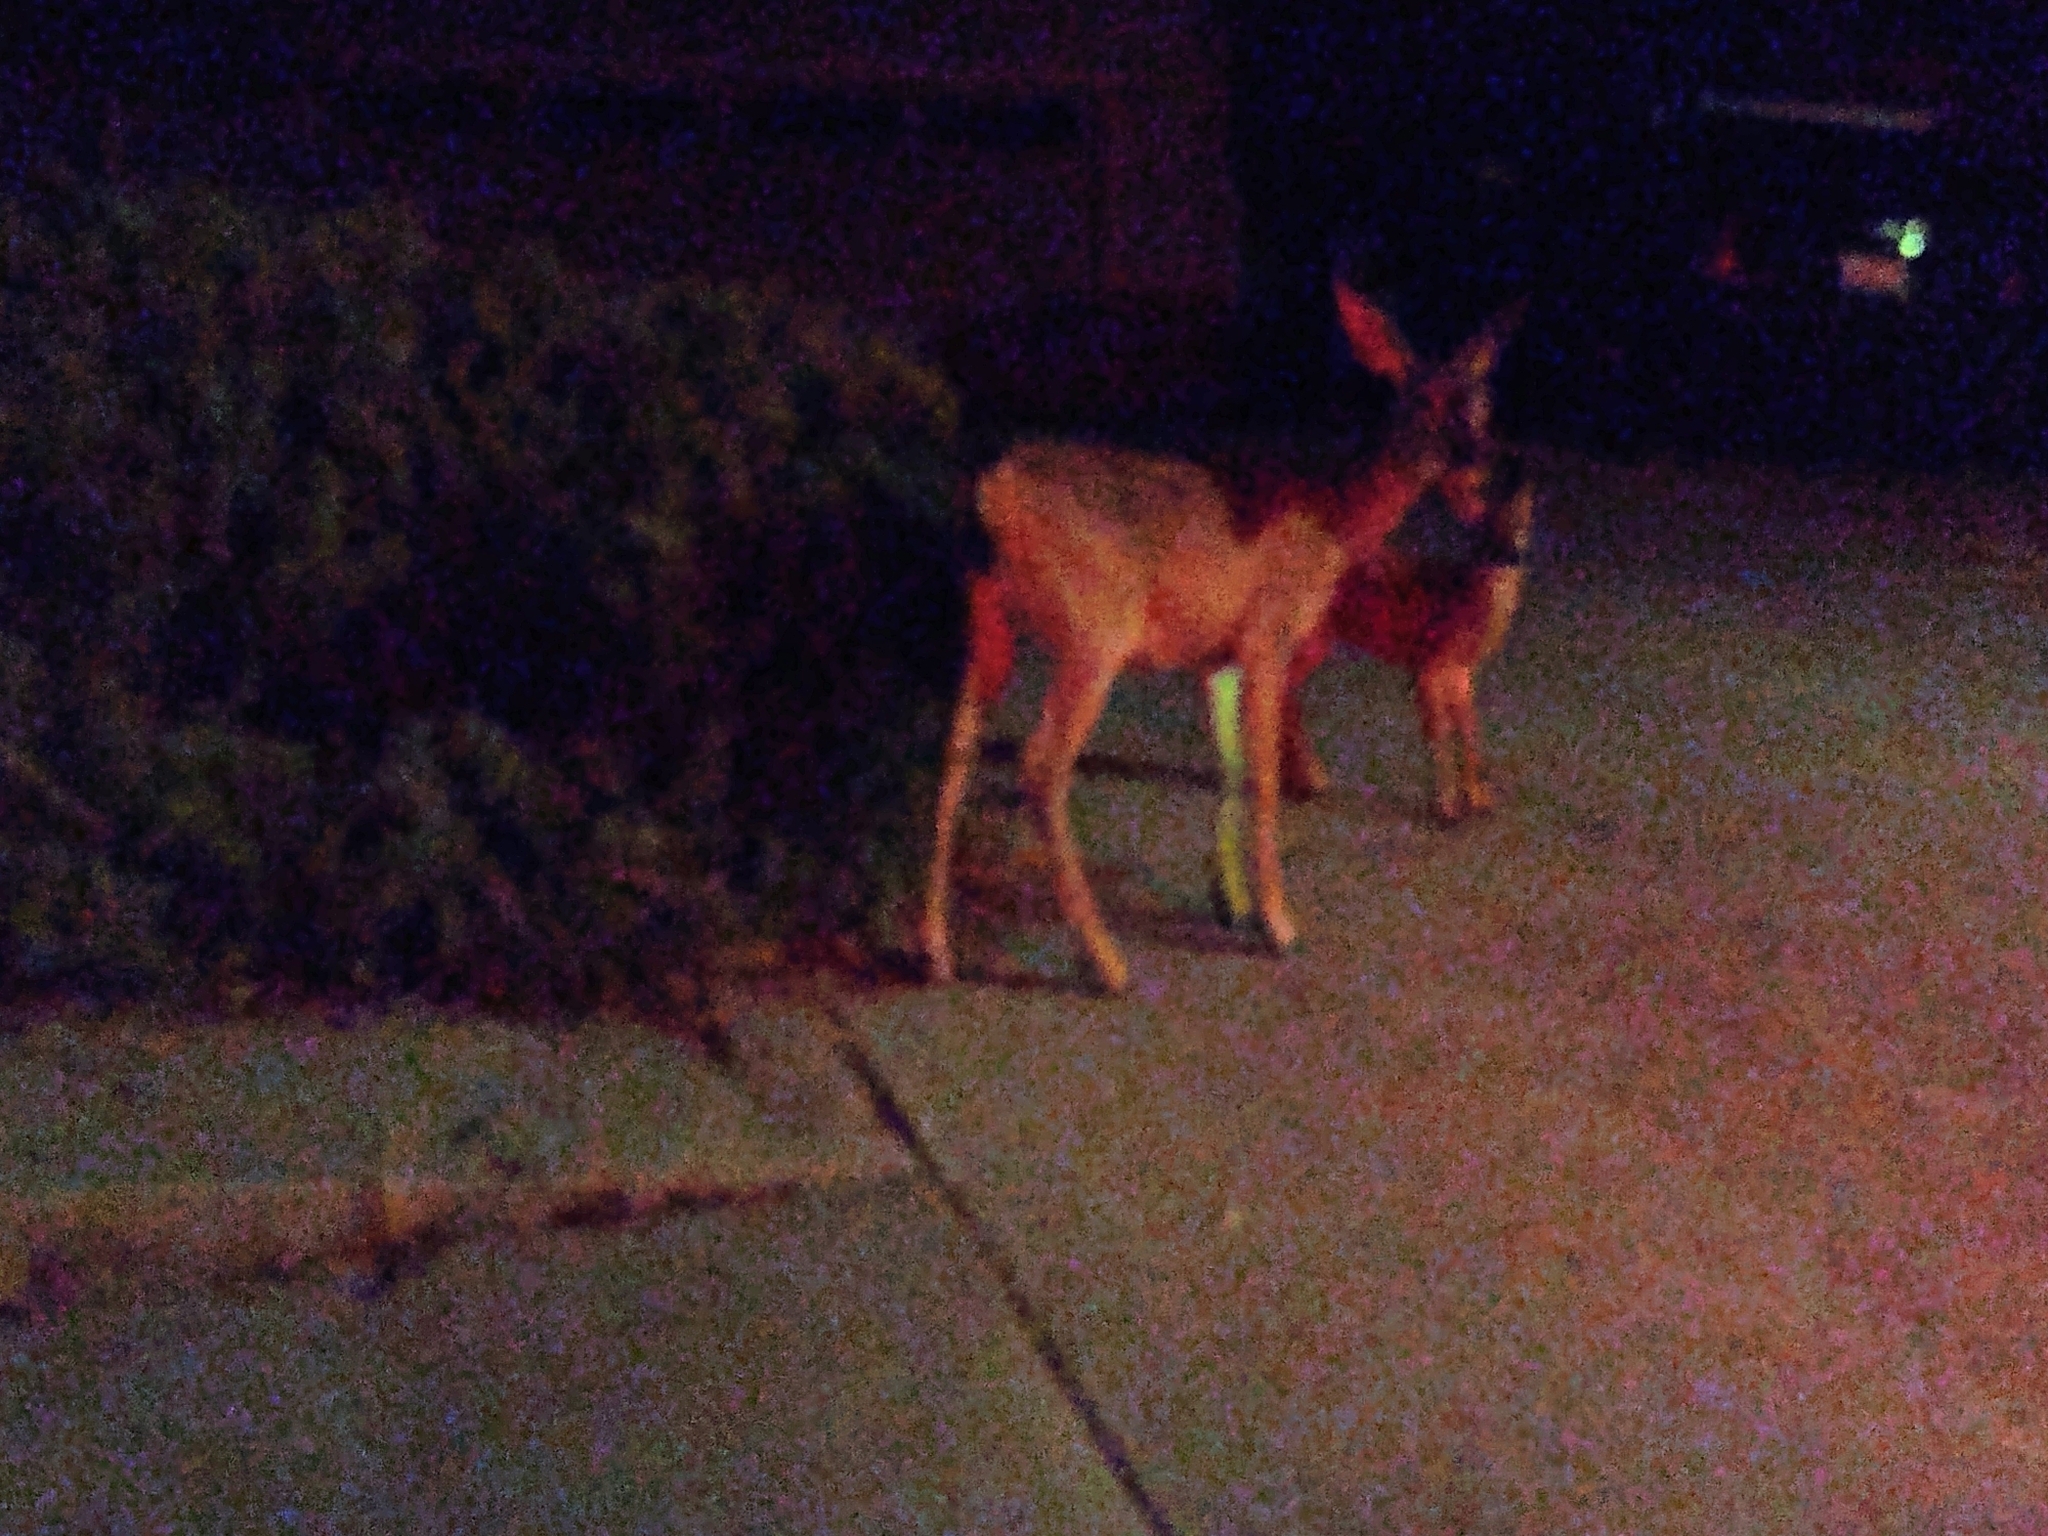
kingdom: Animalia
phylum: Chordata
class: Mammalia
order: Artiodactyla
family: Cervidae
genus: Odocoileus
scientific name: Odocoileus hemionus
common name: Mule deer
